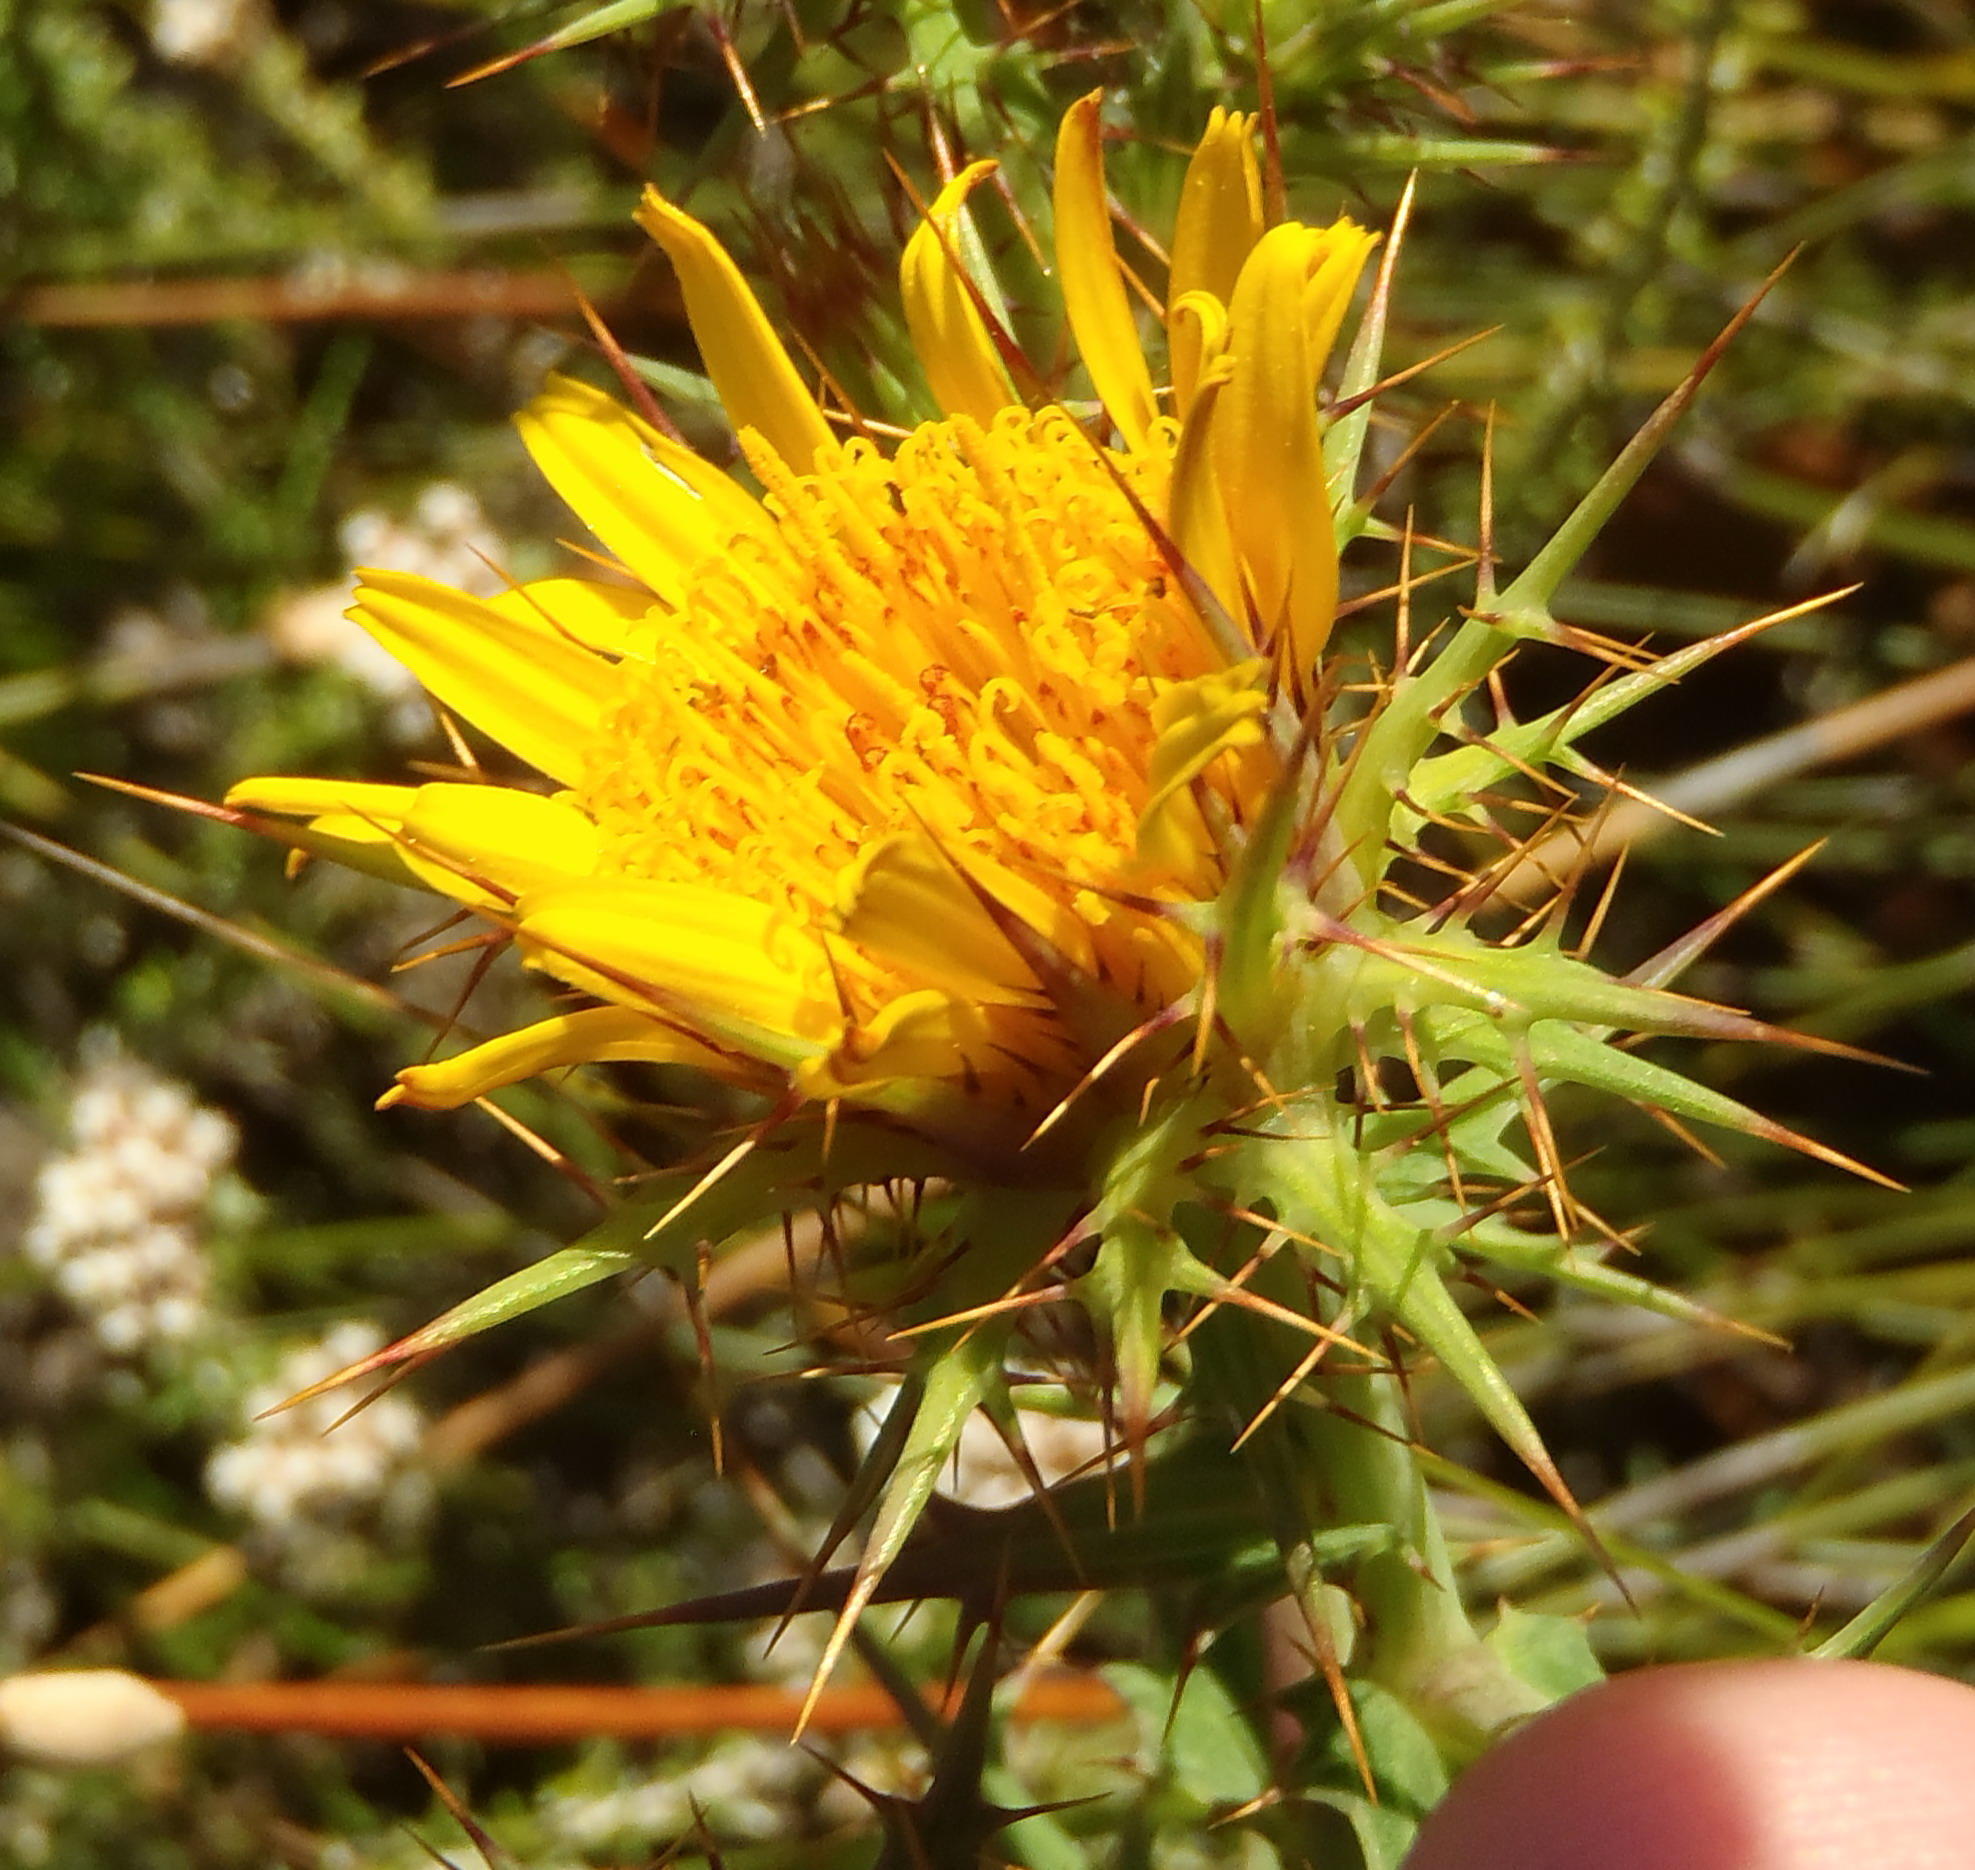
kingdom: Plantae
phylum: Tracheophyta
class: Magnoliopsida
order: Asterales
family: Asteraceae
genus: Berkheya
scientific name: Berkheya cruciata
